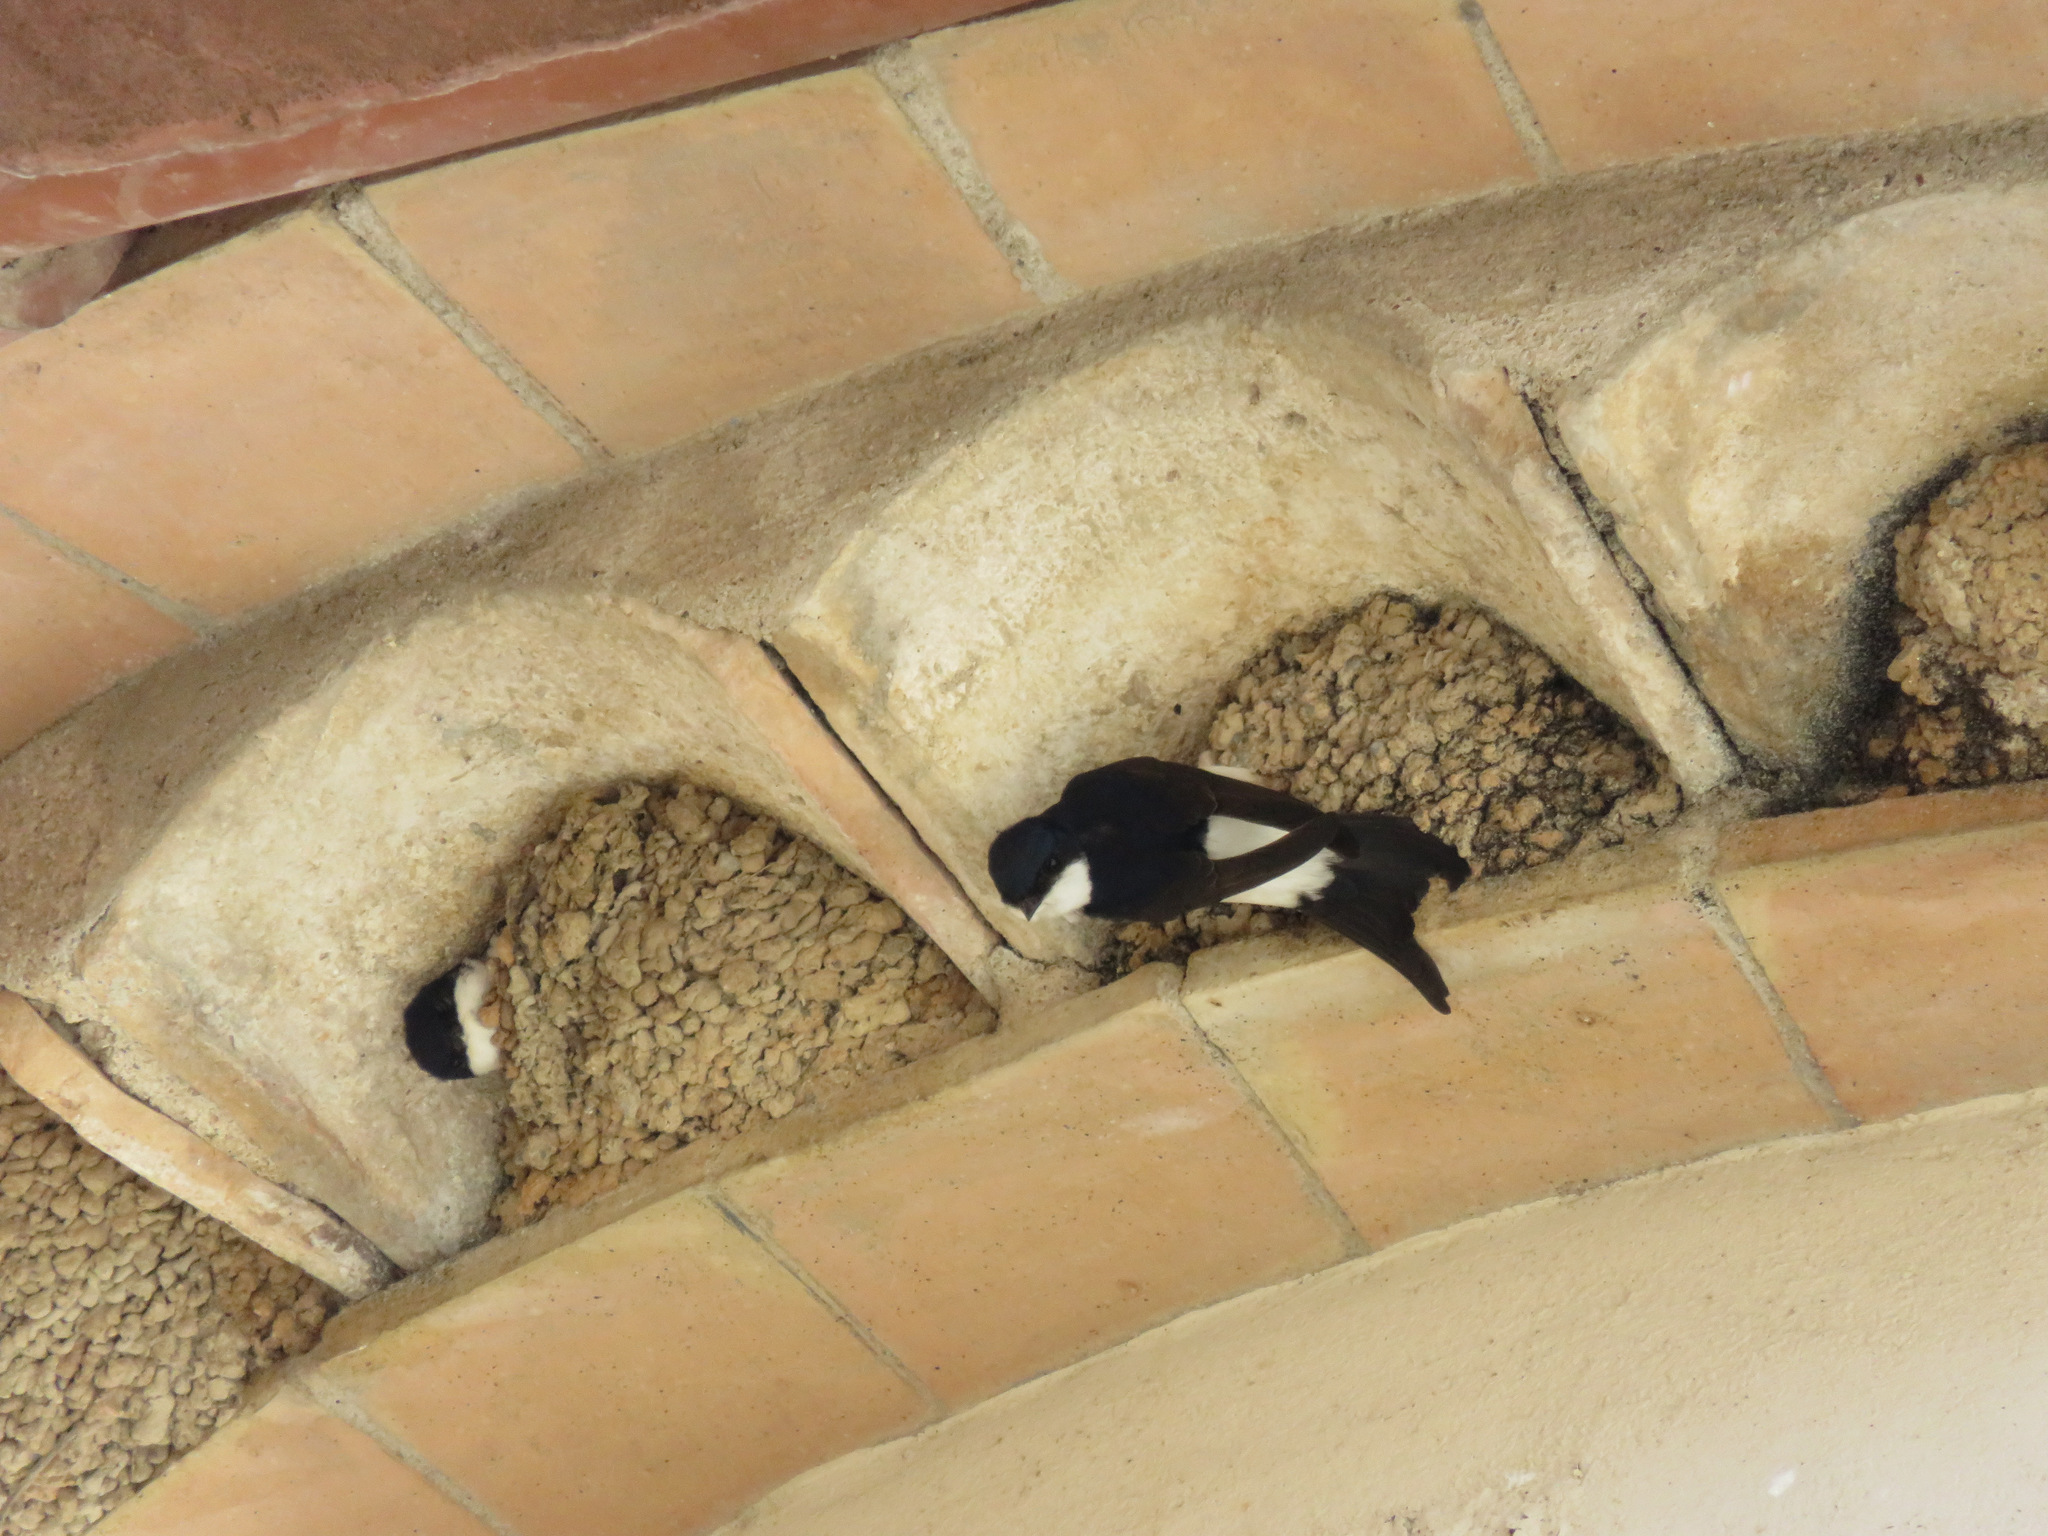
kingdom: Animalia
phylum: Chordata
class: Aves
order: Passeriformes
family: Hirundinidae
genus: Delichon
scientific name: Delichon urbicum
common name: Common house martin
